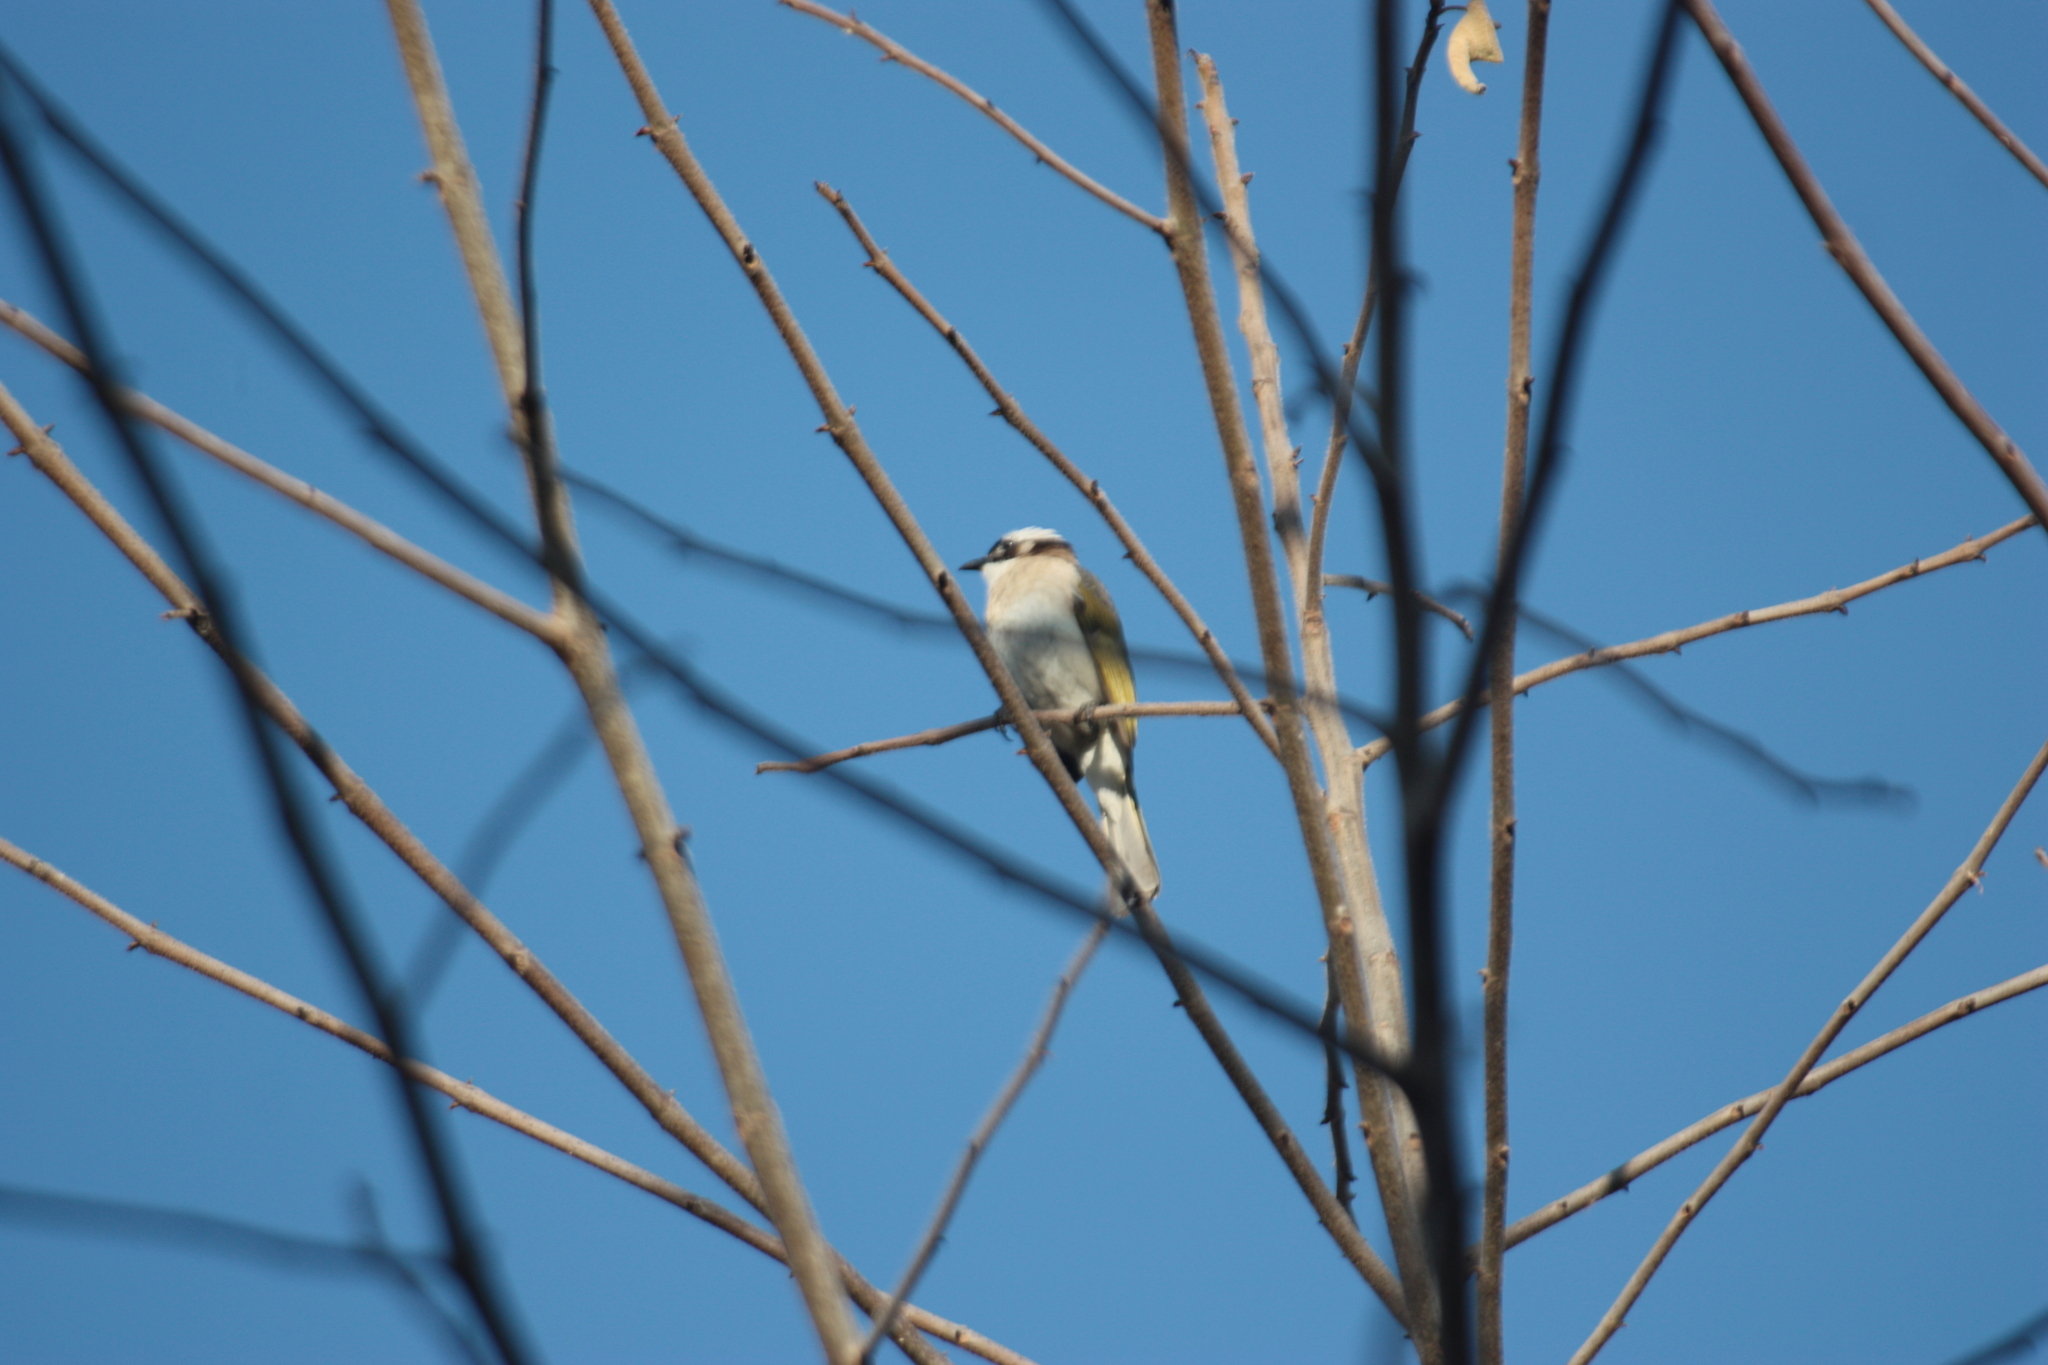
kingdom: Animalia
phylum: Chordata
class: Aves
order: Passeriformes
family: Pycnonotidae
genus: Pycnonotus
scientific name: Pycnonotus sinensis
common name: Light-vented bulbul
